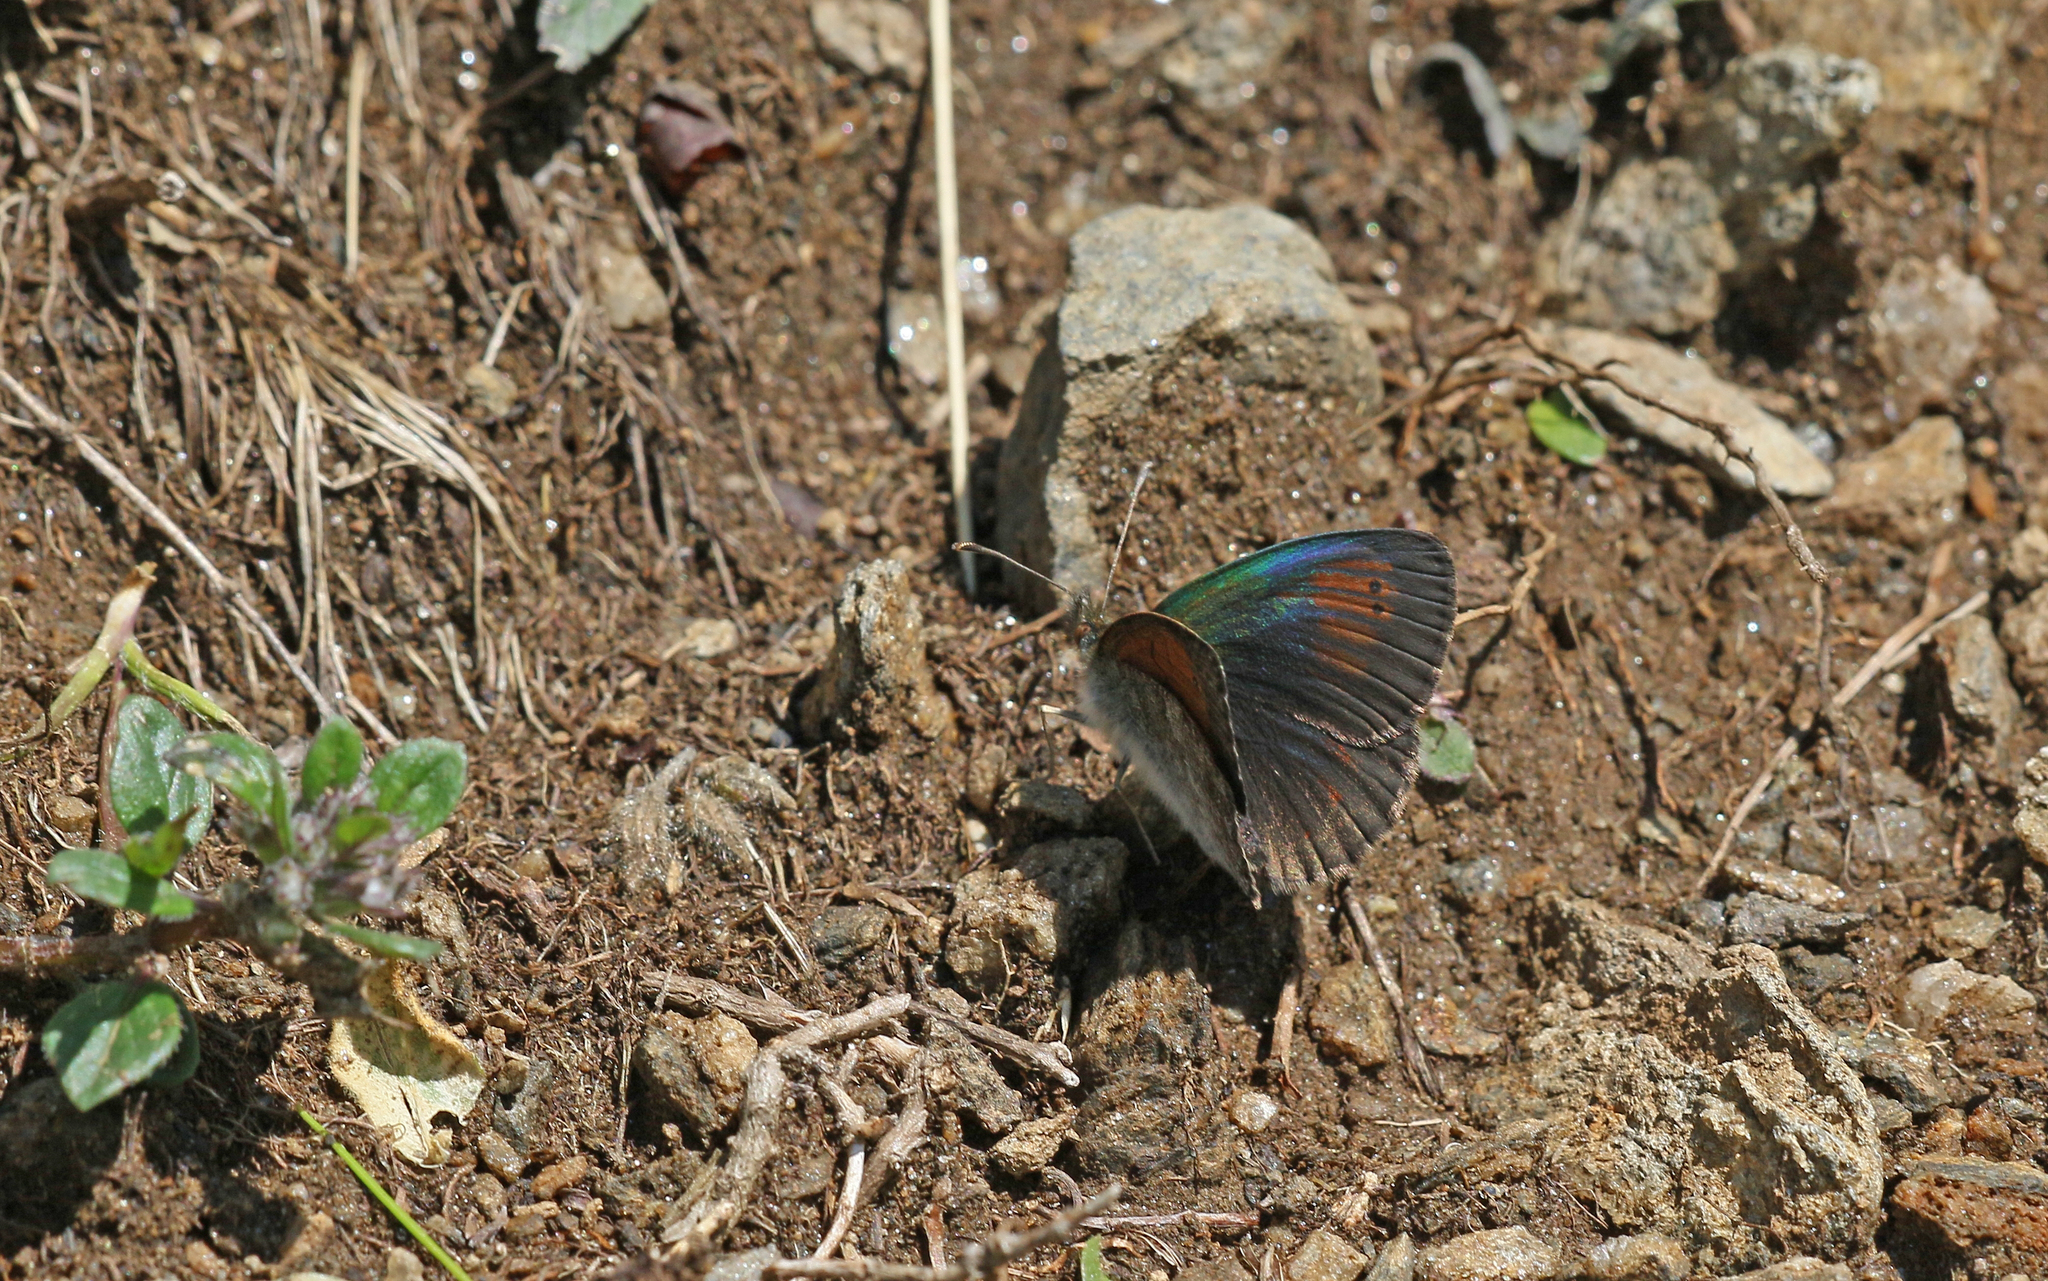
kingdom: Animalia
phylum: Arthropoda
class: Insecta
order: Lepidoptera
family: Nymphalidae
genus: Erebia
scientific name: Erebia tyndarus
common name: Swiss brassy ringlet
